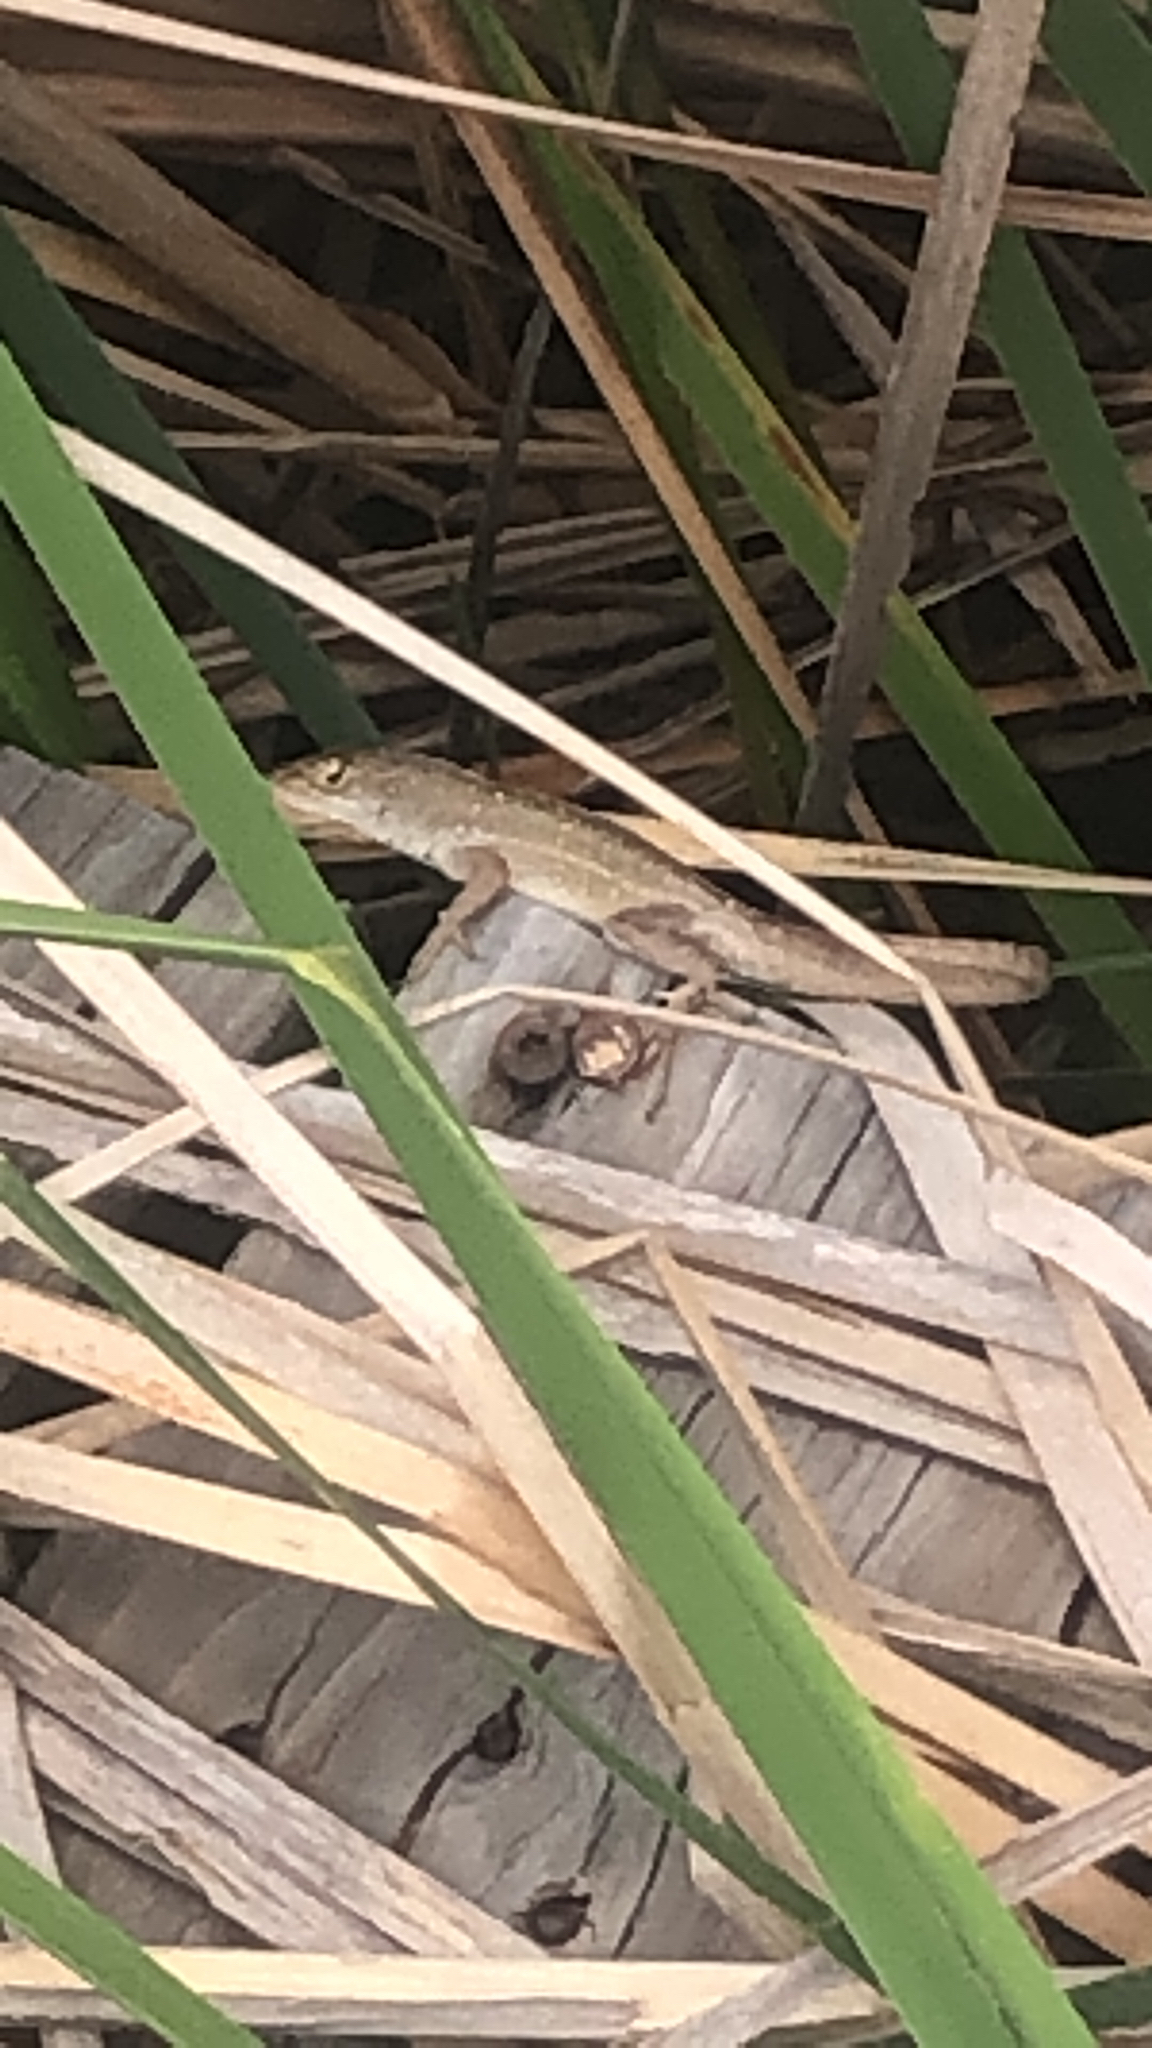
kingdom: Animalia
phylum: Chordata
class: Squamata
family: Dactyloidae
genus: Anolis
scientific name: Anolis sagrei
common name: Brown anole
